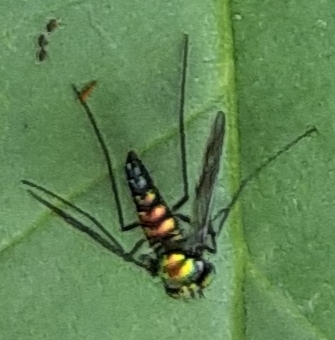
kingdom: Animalia
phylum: Arthropoda
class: Insecta
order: Diptera
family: Dolichopodidae
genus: Condylostylus
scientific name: Condylostylus patibulatus
